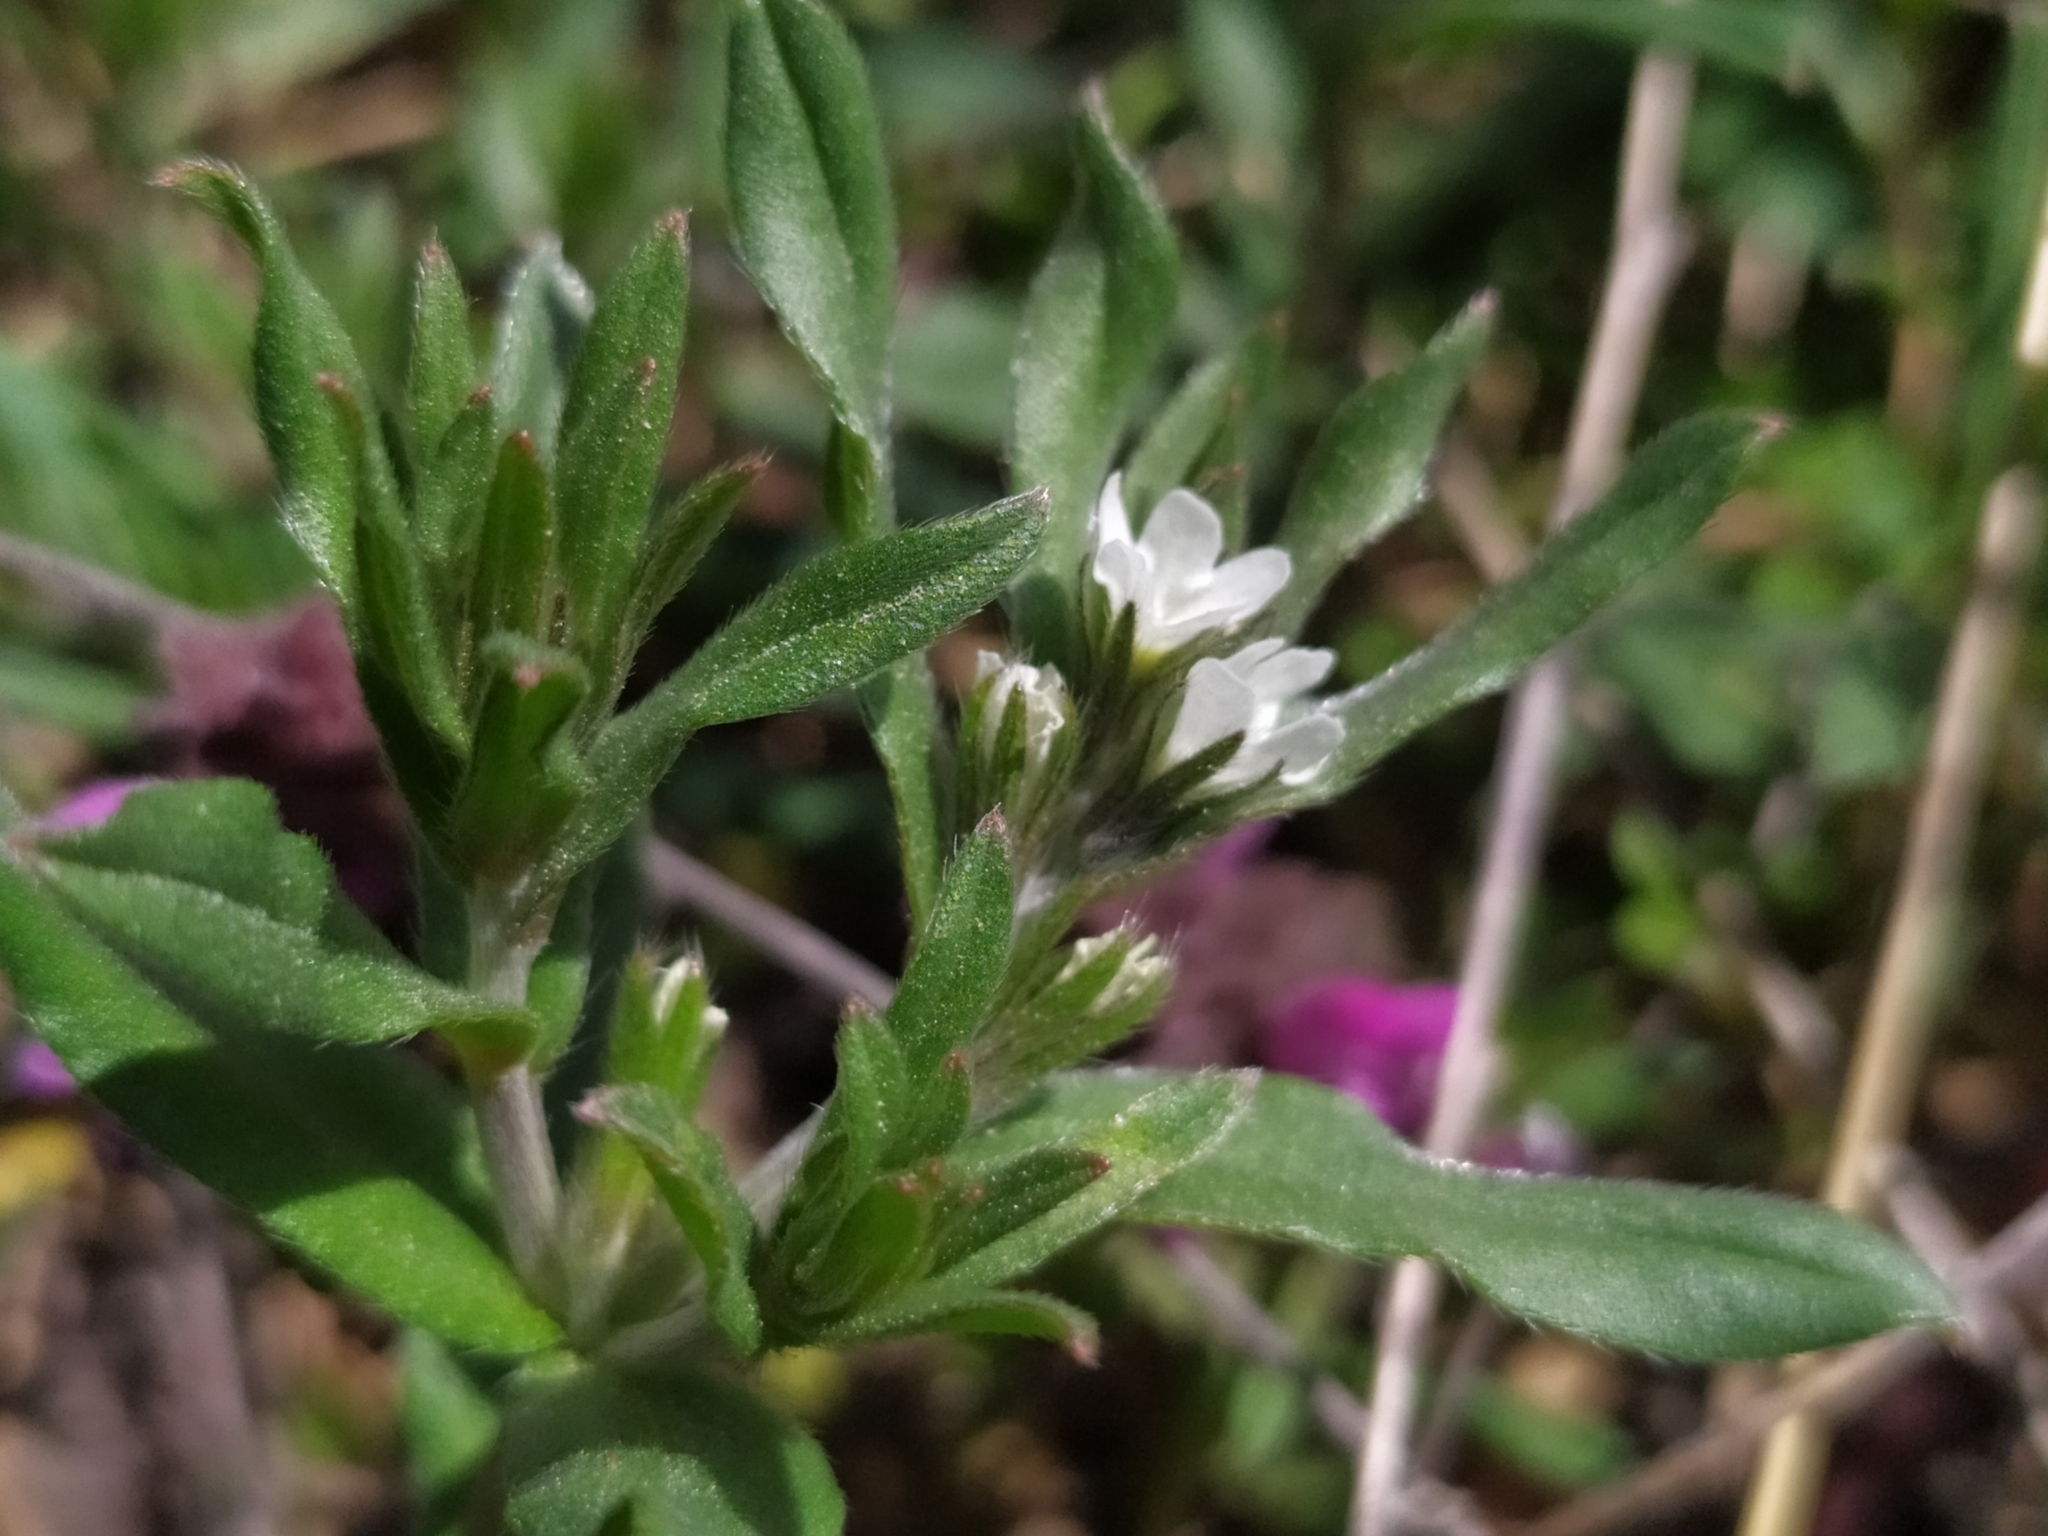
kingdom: Plantae
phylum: Tracheophyta
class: Magnoliopsida
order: Boraginales
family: Boraginaceae
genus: Buglossoides
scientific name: Buglossoides arvensis
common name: Corn gromwell
